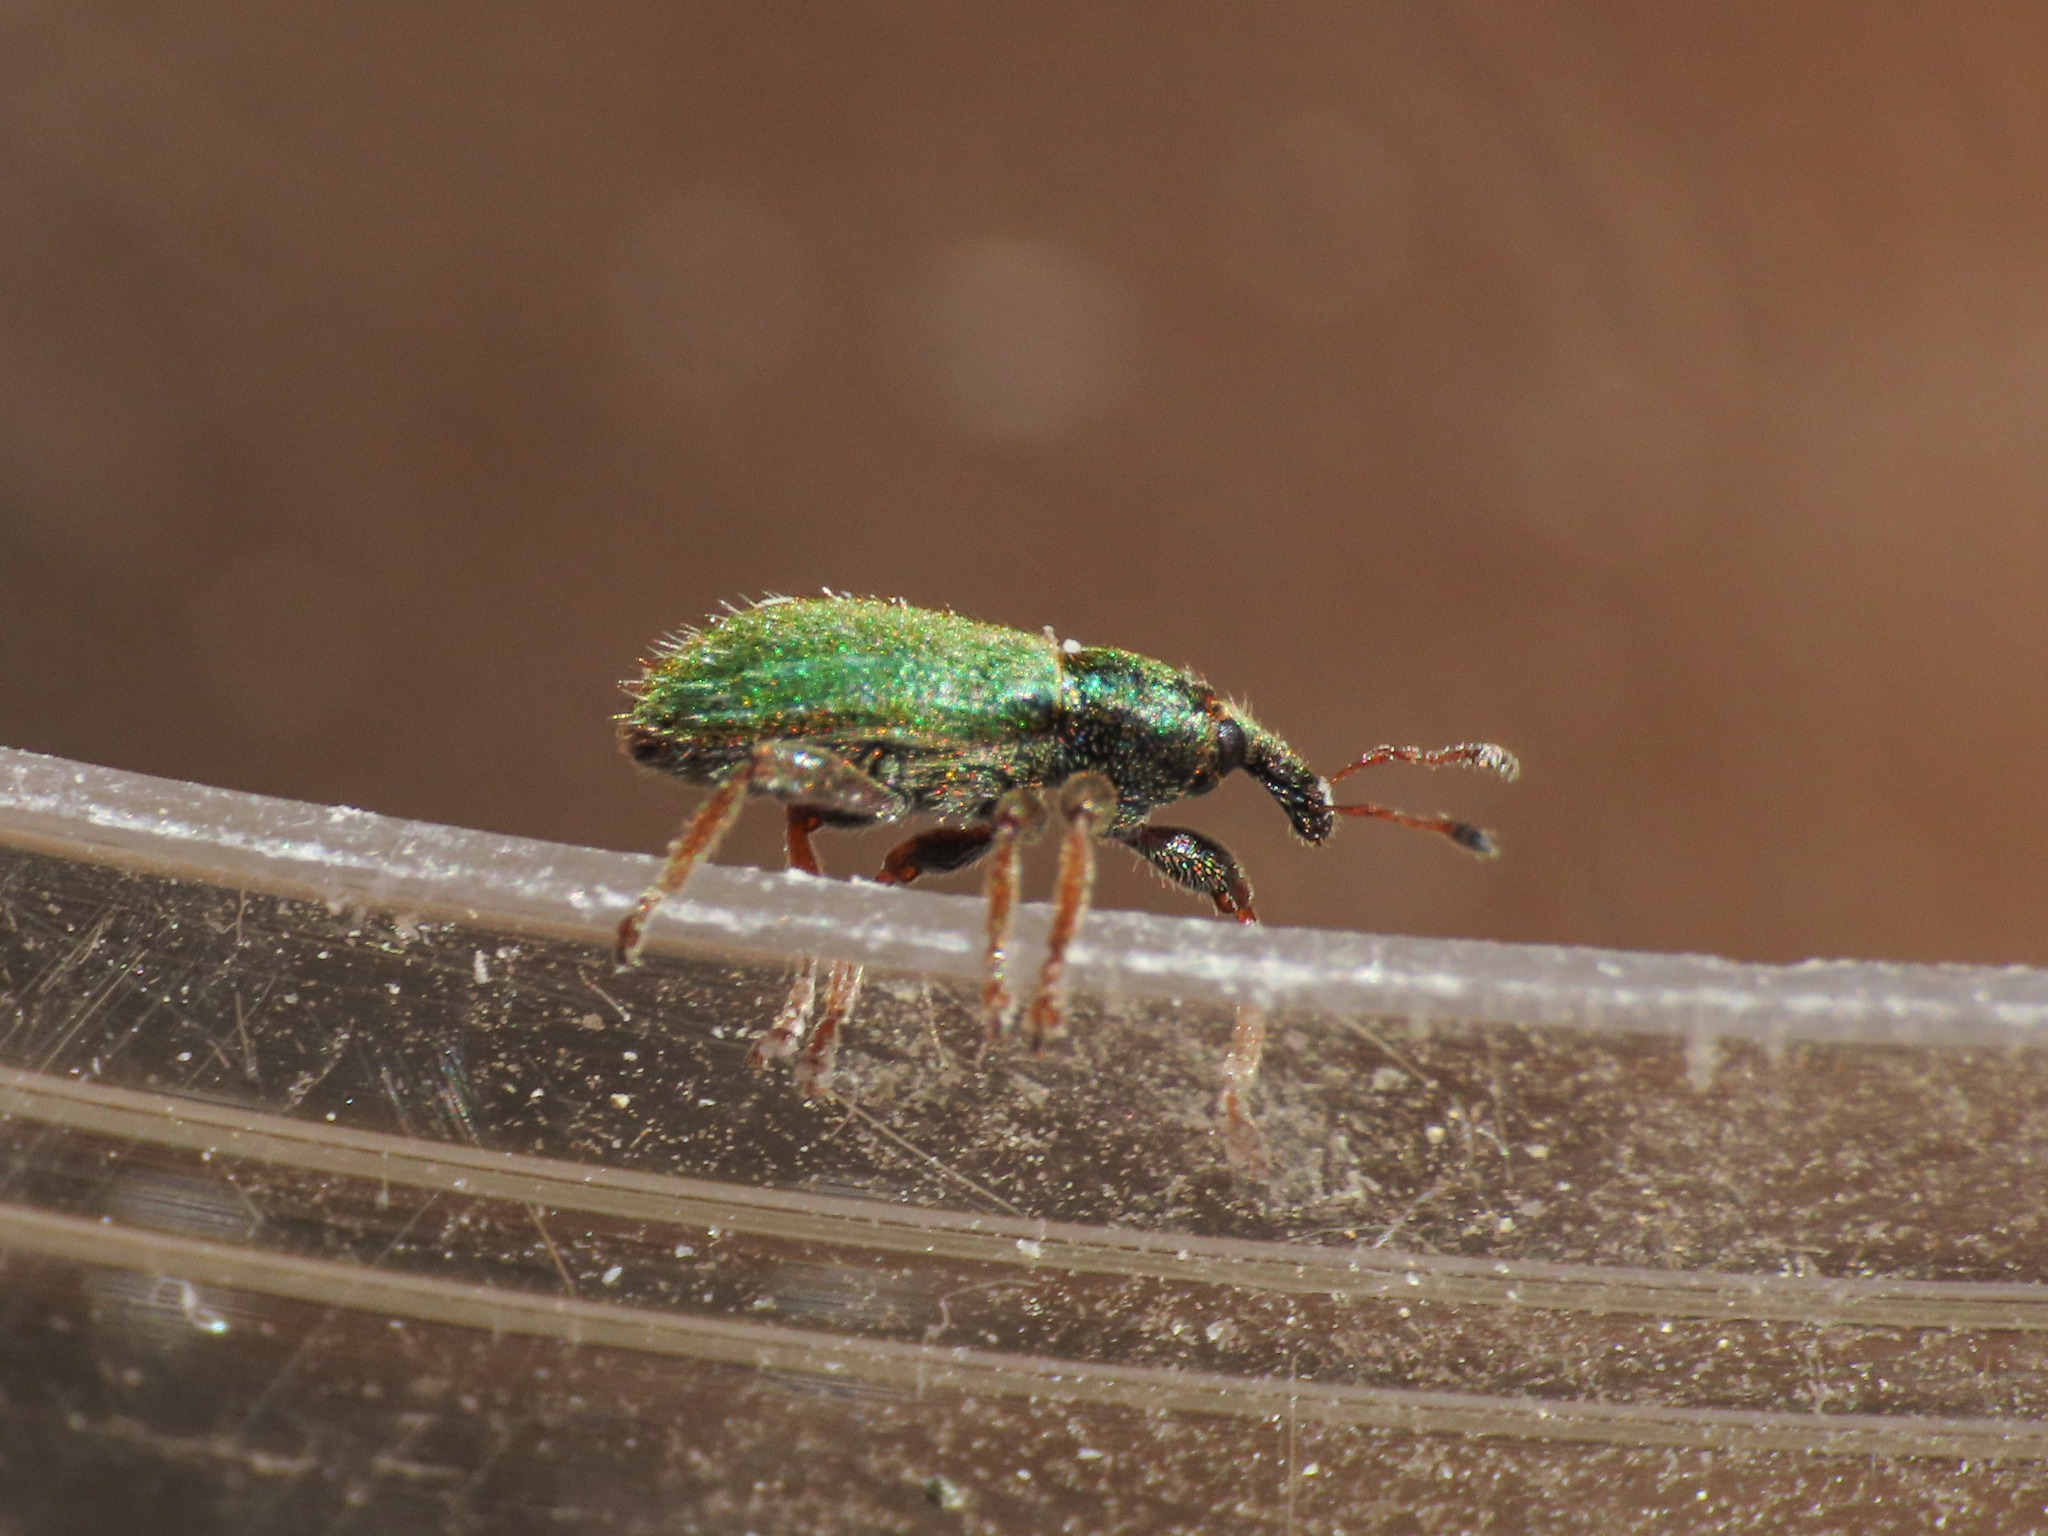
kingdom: Animalia
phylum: Arthropoda
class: Insecta
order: Coleoptera
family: Curculionidae
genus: Hypera
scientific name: Hypera nigrirostris
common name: Black-beaked green weevil
